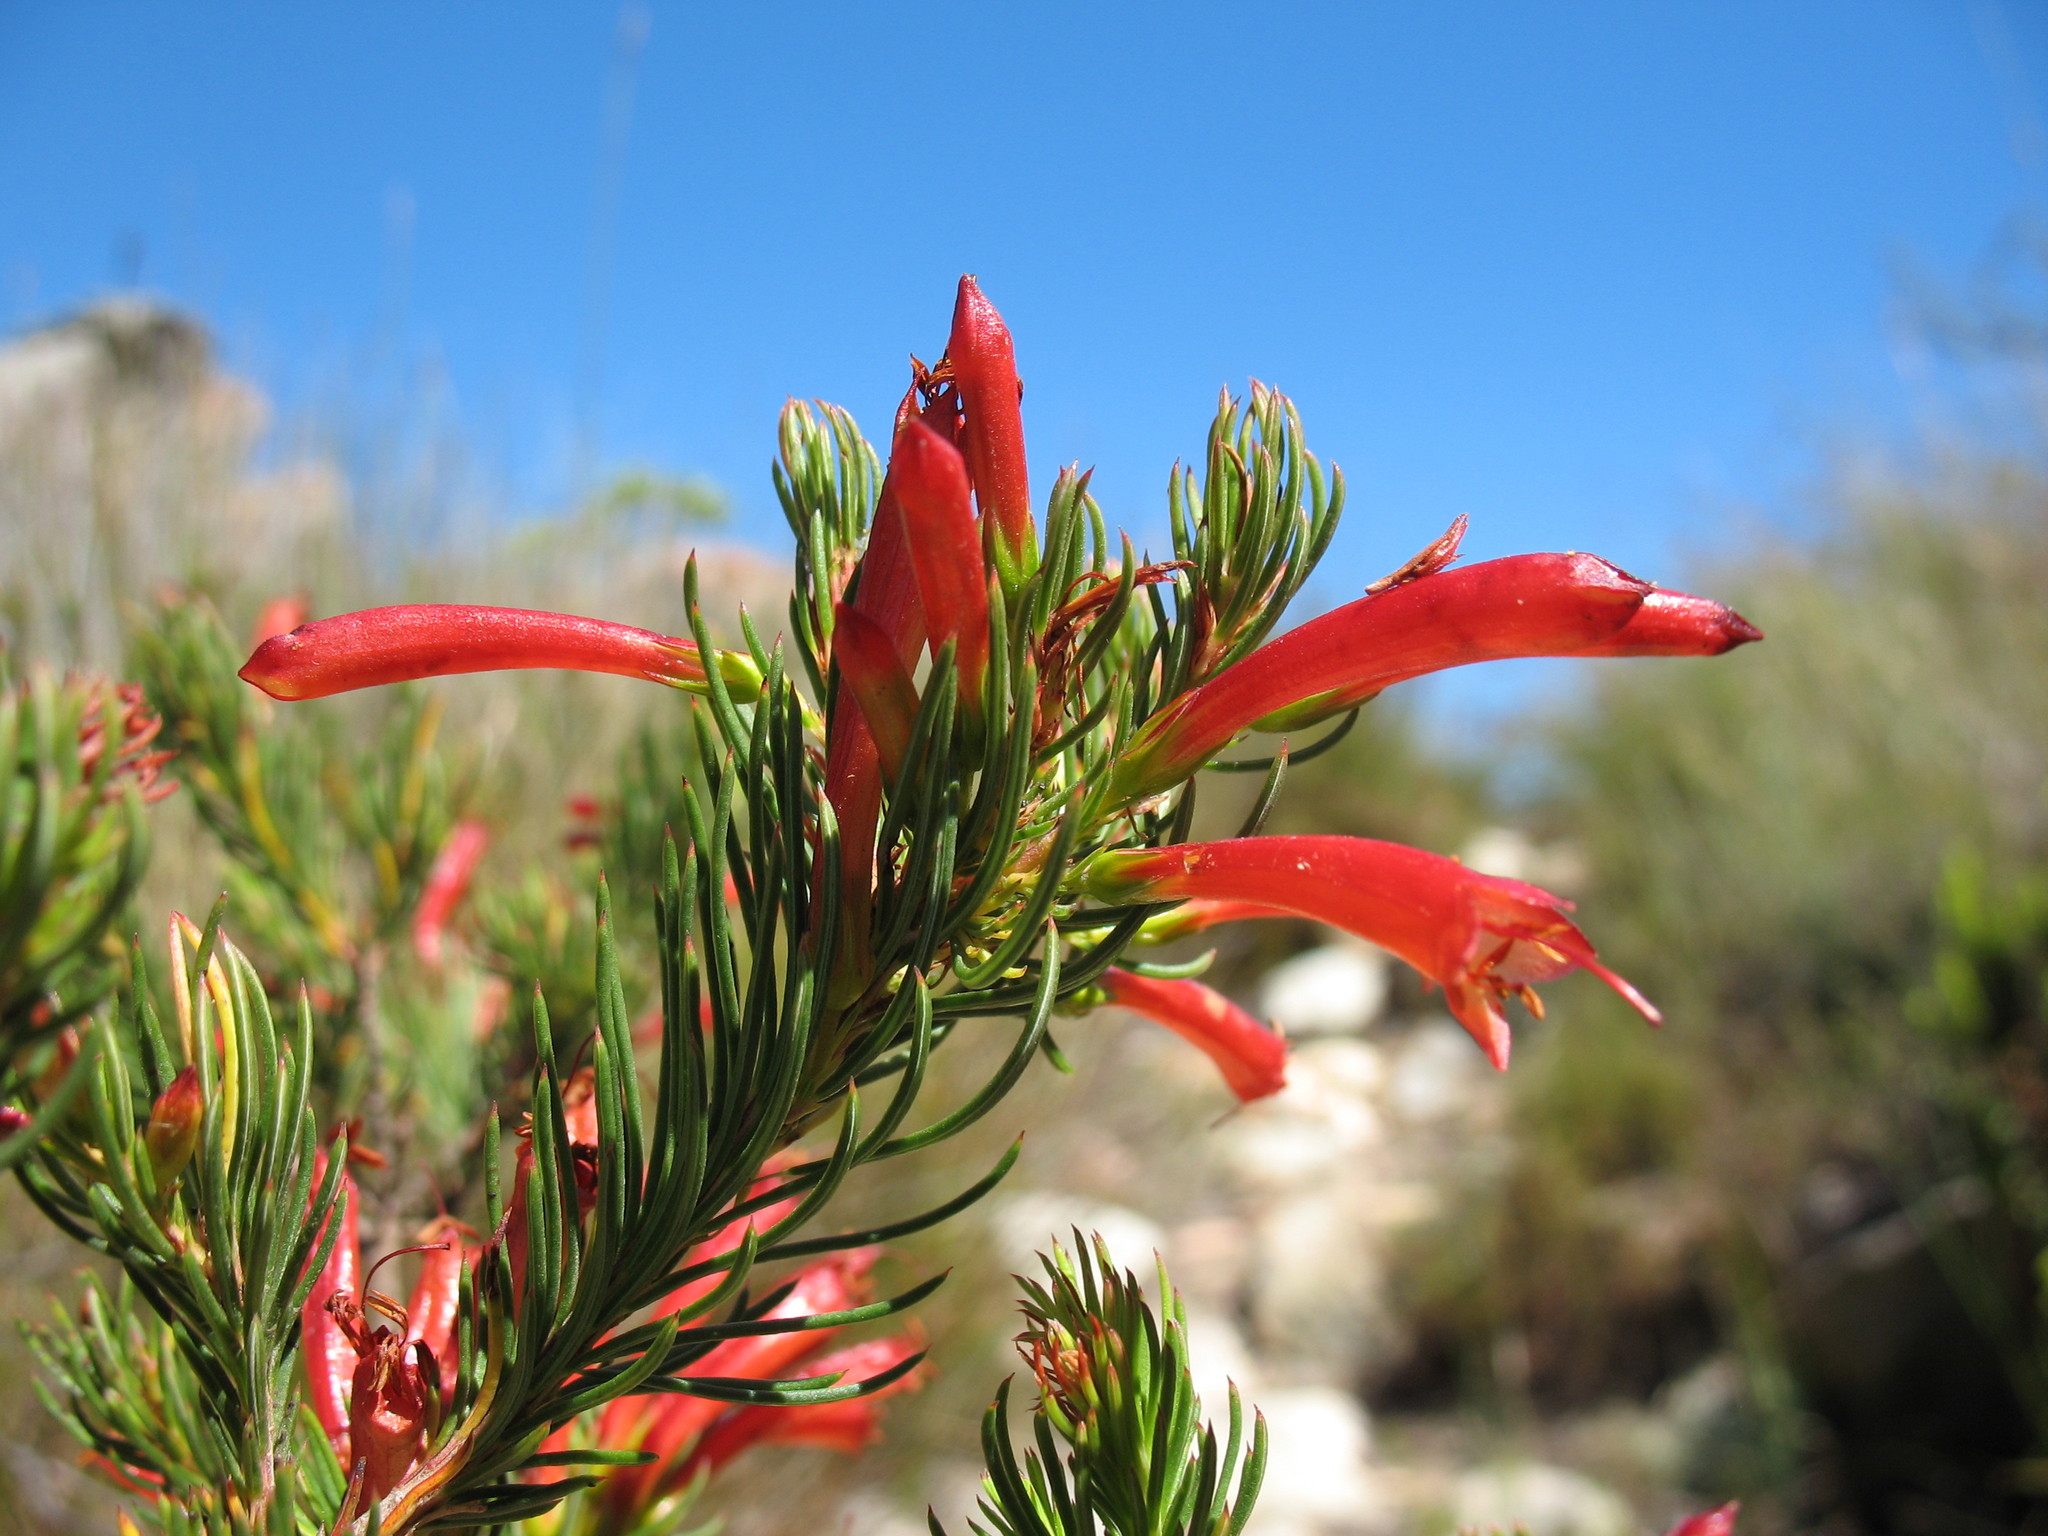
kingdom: Plantae
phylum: Tracheophyta
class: Magnoliopsida
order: Ericales
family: Ericaceae
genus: Erica
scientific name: Erica grandiflora
